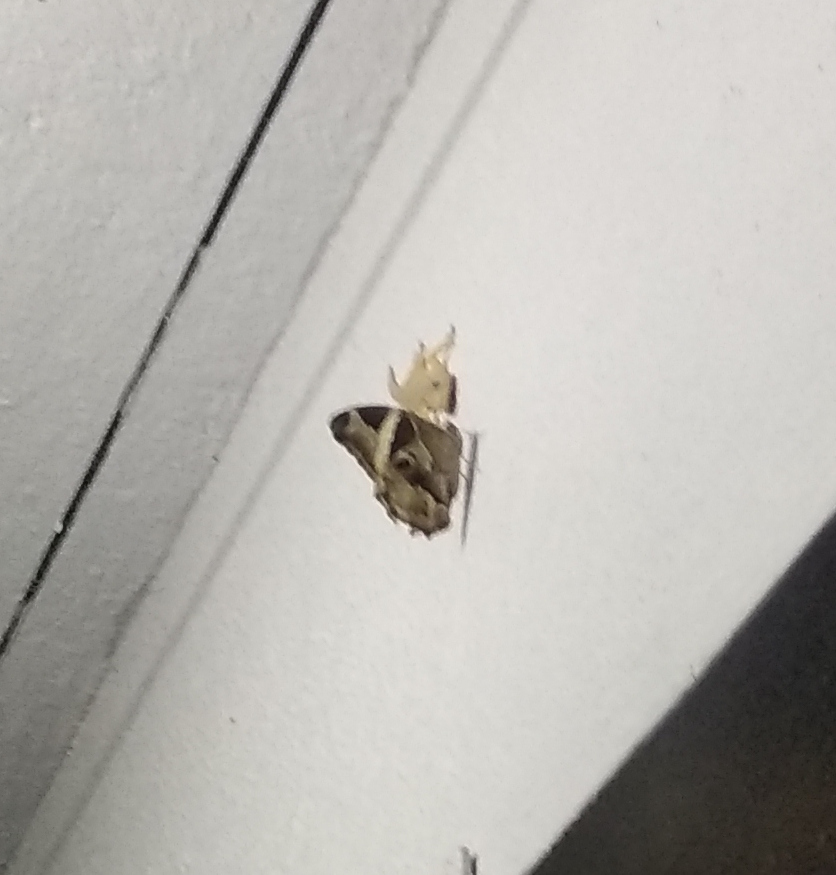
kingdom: Animalia
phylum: Arthropoda
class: Insecta
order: Lepidoptera
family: Nymphalidae
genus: Lethe
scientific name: Lethe europa
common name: Bamboo treebrown
